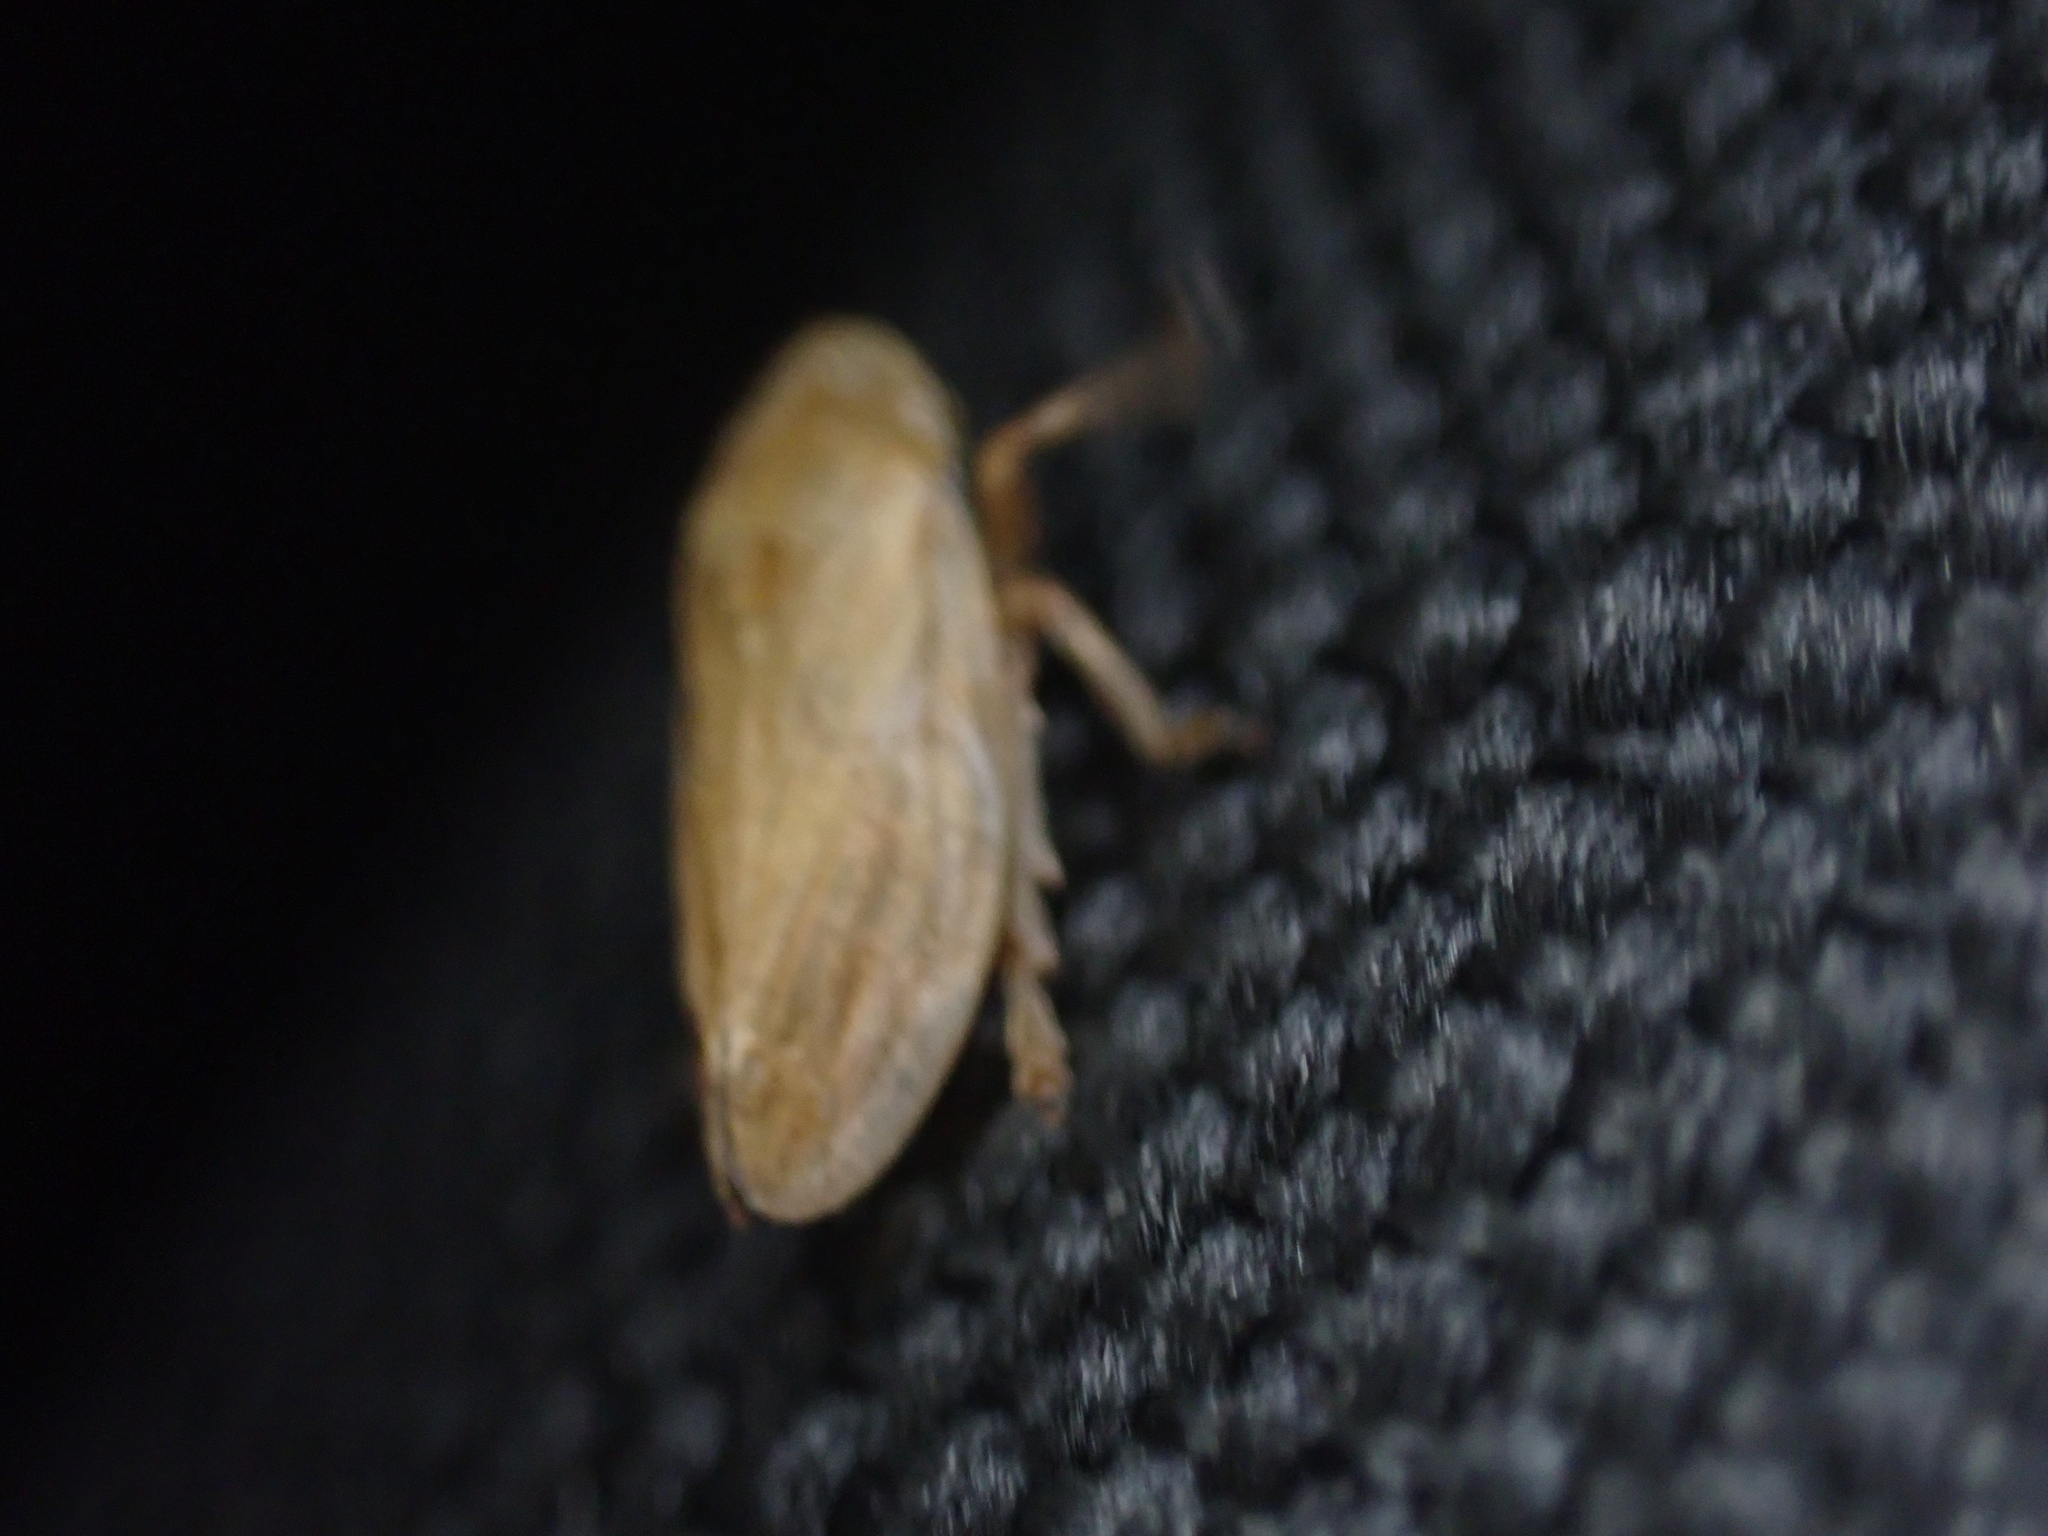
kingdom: Animalia
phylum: Arthropoda
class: Insecta
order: Hemiptera
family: Aphrophoridae
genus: Philaenus
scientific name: Philaenus spumarius
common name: Meadow spittlebug
